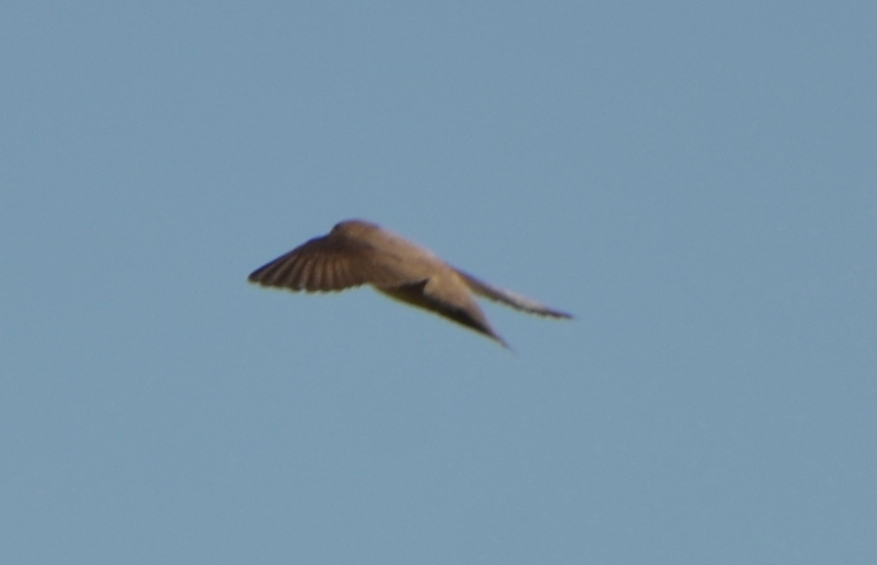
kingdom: Animalia
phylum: Chordata
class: Aves
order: Passeriformes
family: Hirundinidae
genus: Ptyonoprogne
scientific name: Ptyonoprogne rupestris
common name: Eurasian crag martin
